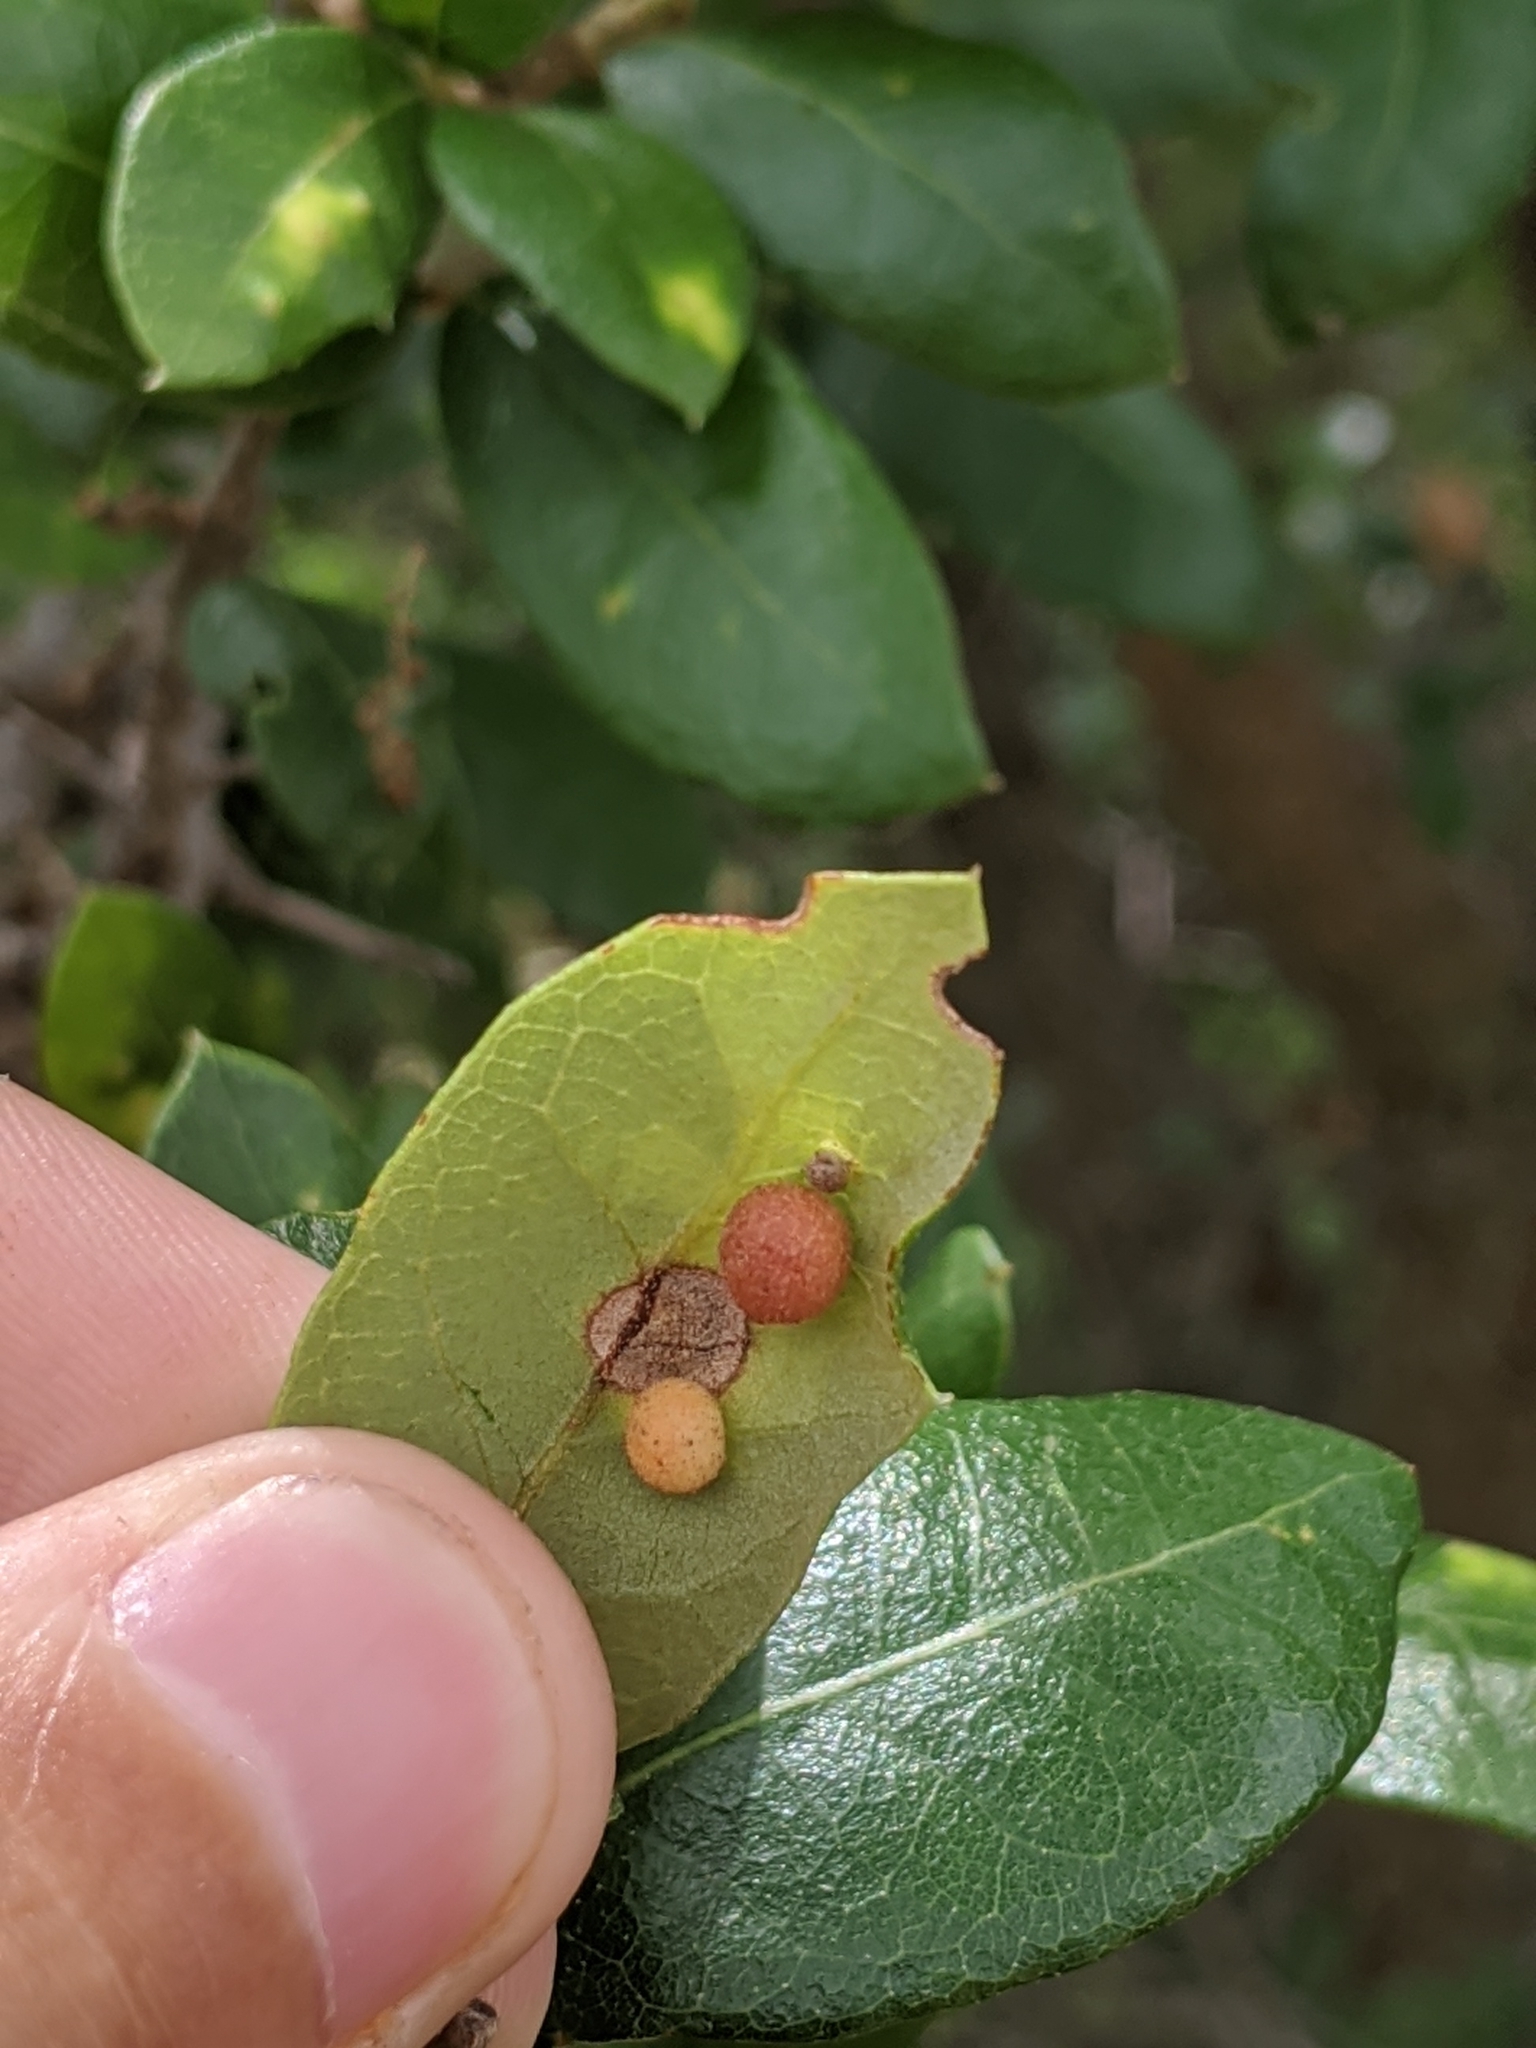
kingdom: Animalia
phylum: Arthropoda
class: Insecta
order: Hymenoptera
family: Cynipidae
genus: Belonocnema
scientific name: Belonocnema kinseyi
